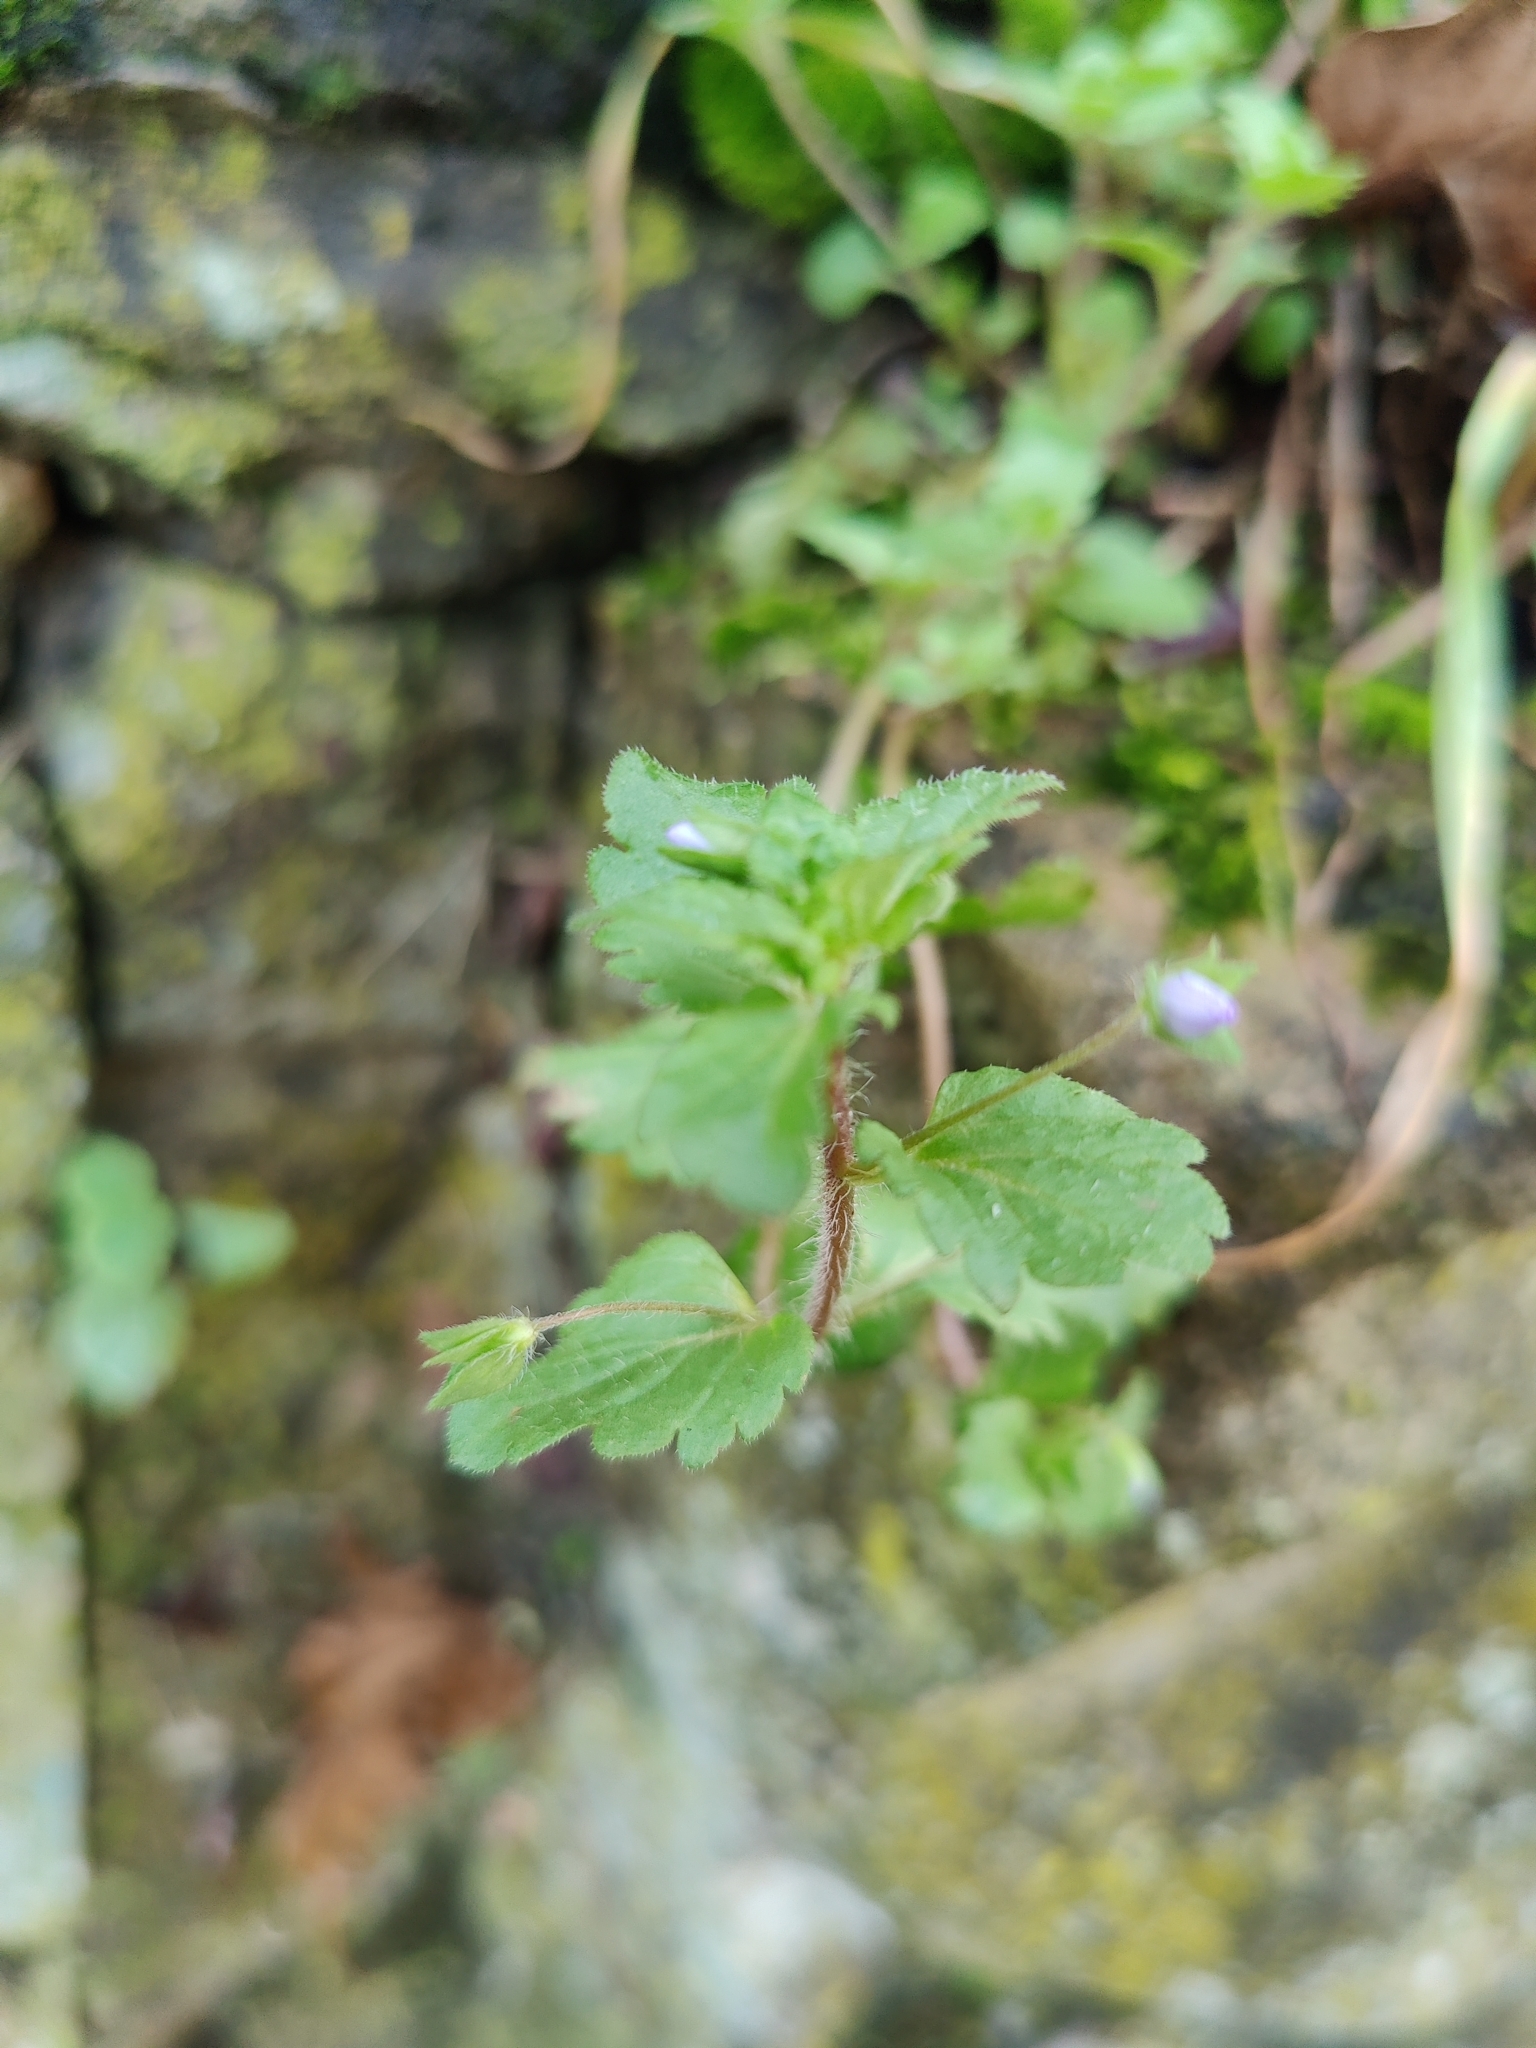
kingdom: Plantae
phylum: Tracheophyta
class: Magnoliopsida
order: Lamiales
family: Plantaginaceae
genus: Veronica
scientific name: Veronica persica
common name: Common field-speedwell
